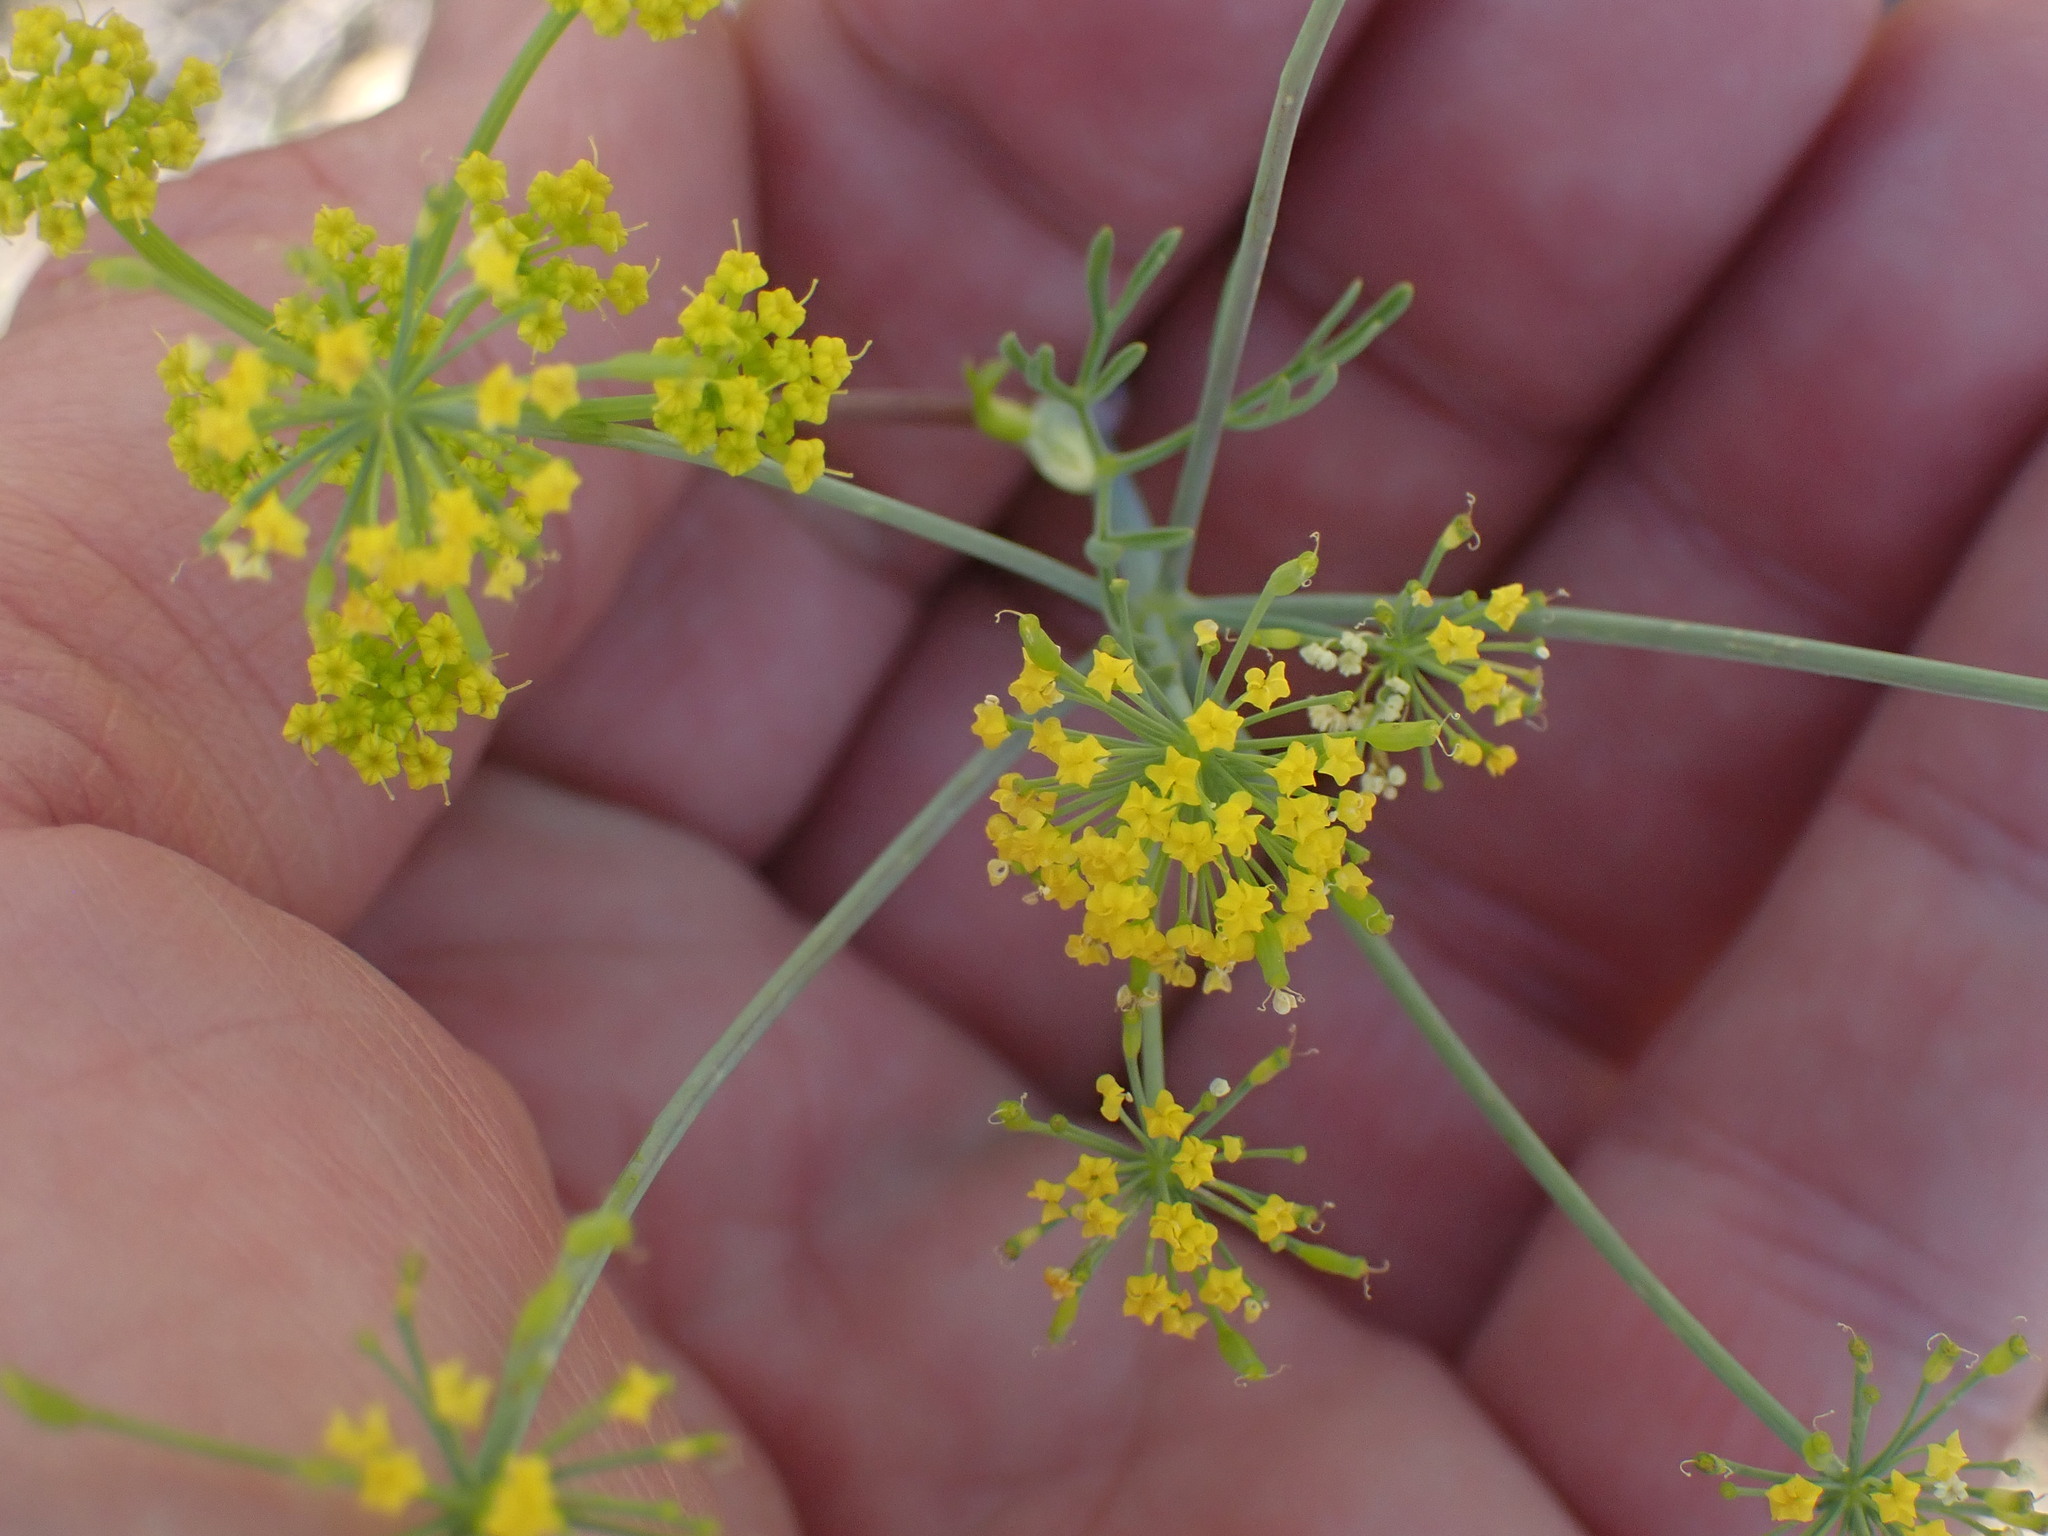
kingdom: Plantae
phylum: Tracheophyta
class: Magnoliopsida
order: Apiales
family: Apiaceae
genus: Lomatium
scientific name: Lomatium ambiguum
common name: Lacy lomatium
